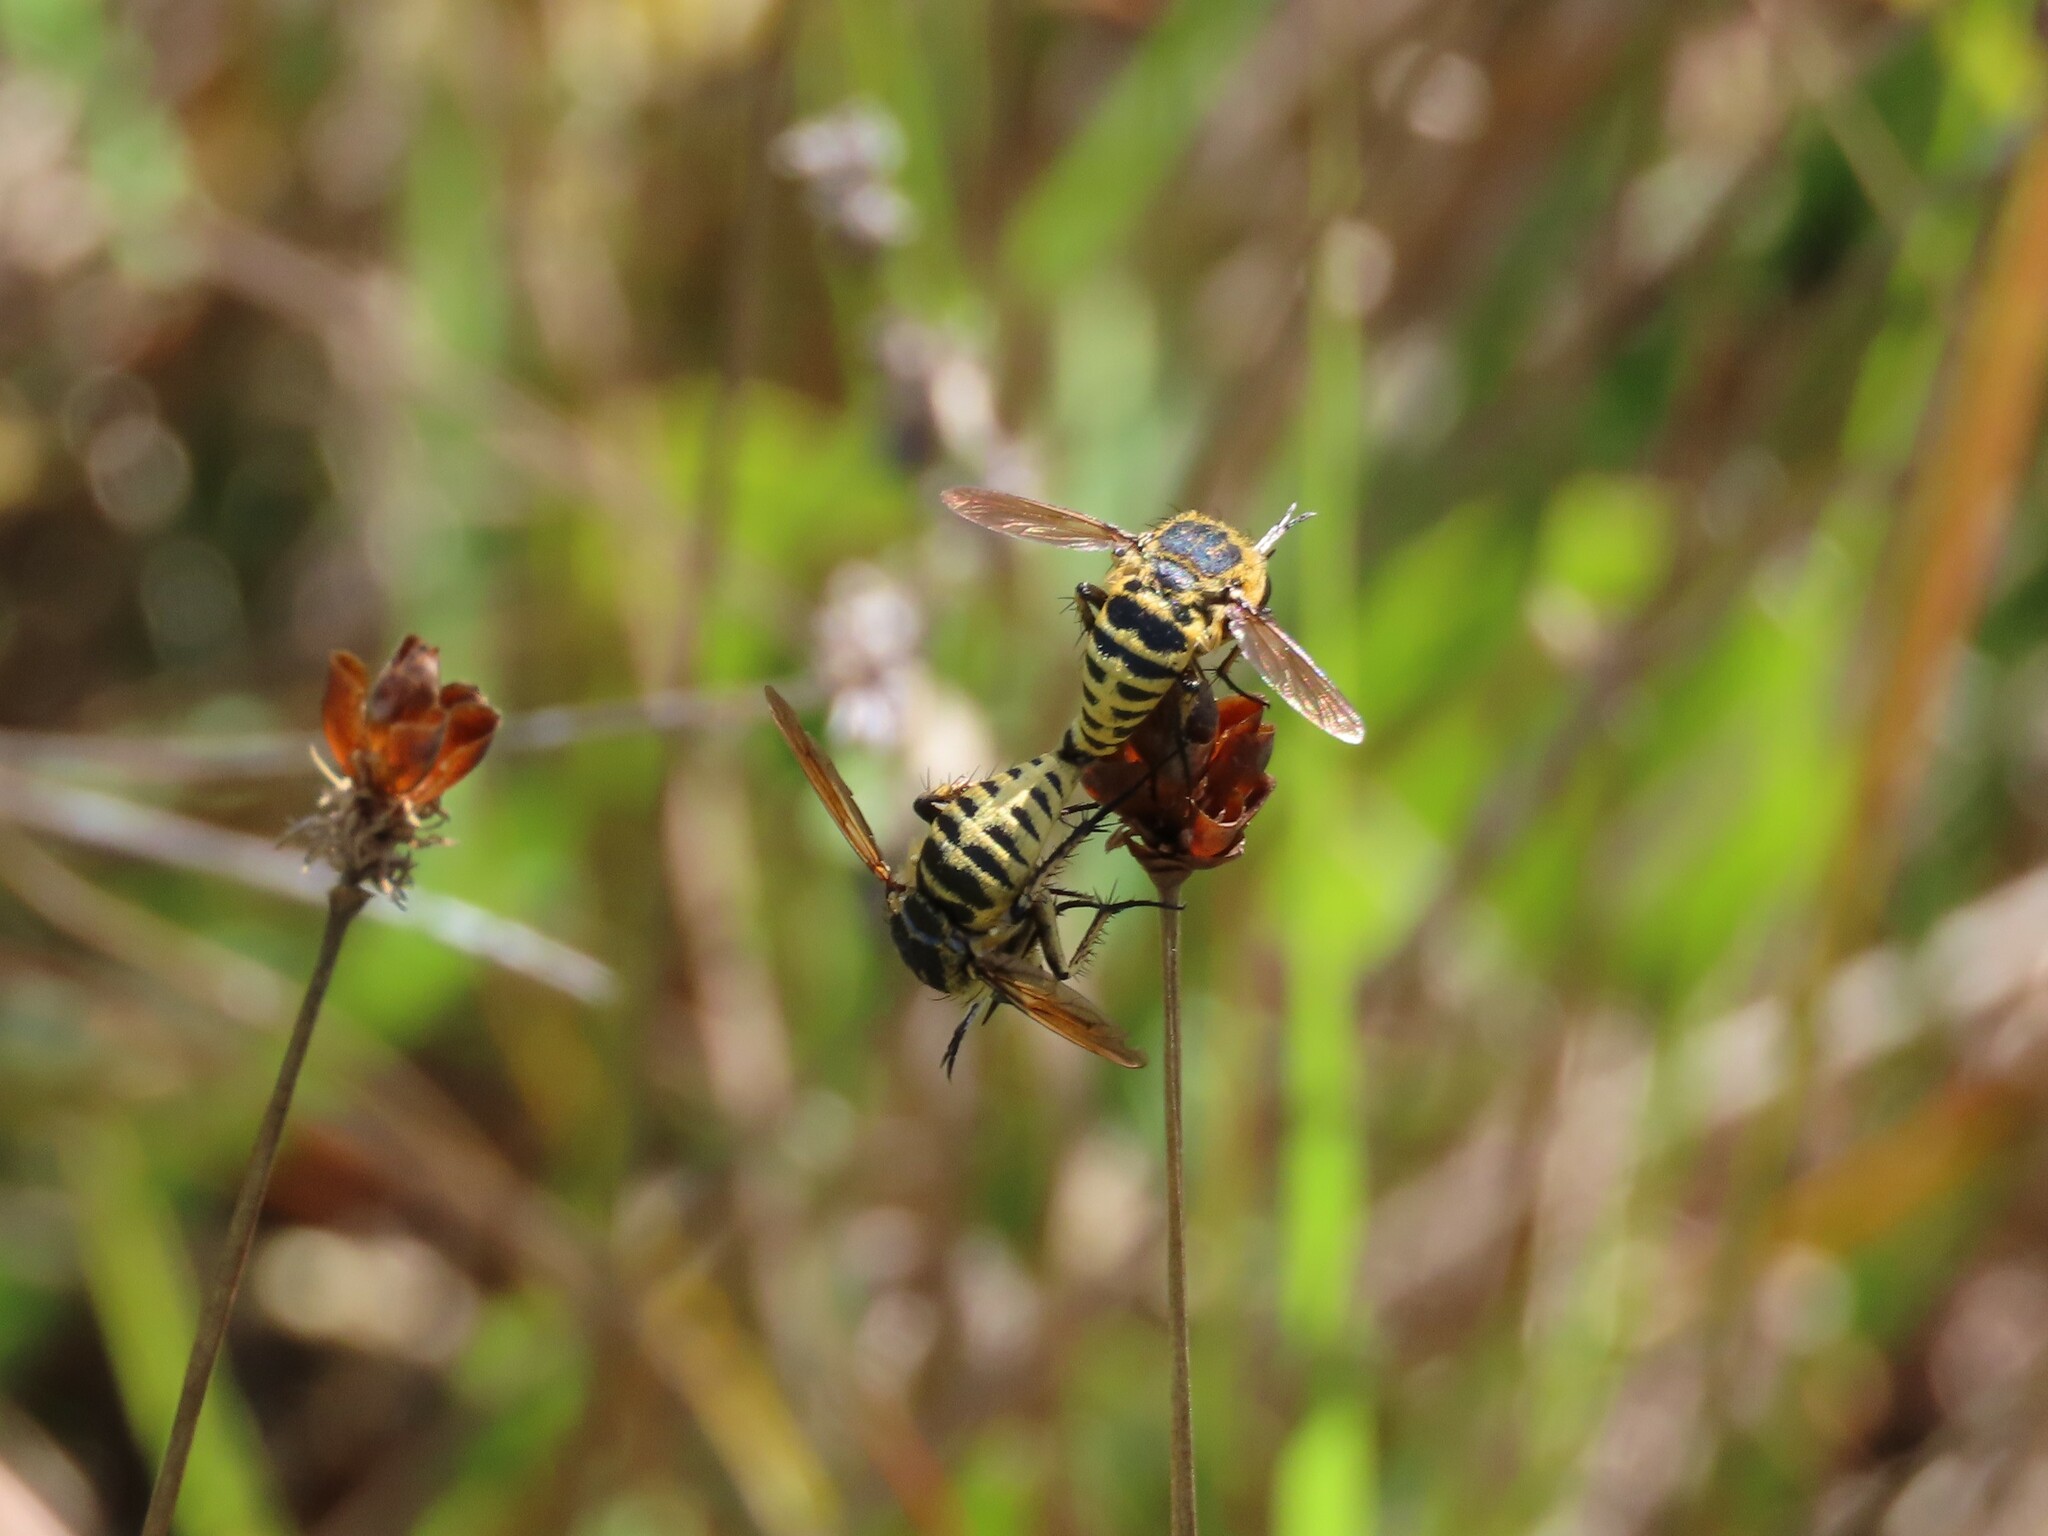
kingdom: Animalia
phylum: Arthropoda
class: Insecta
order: Diptera
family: Bombyliidae
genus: Toxophora
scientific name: Toxophora leucopyga
